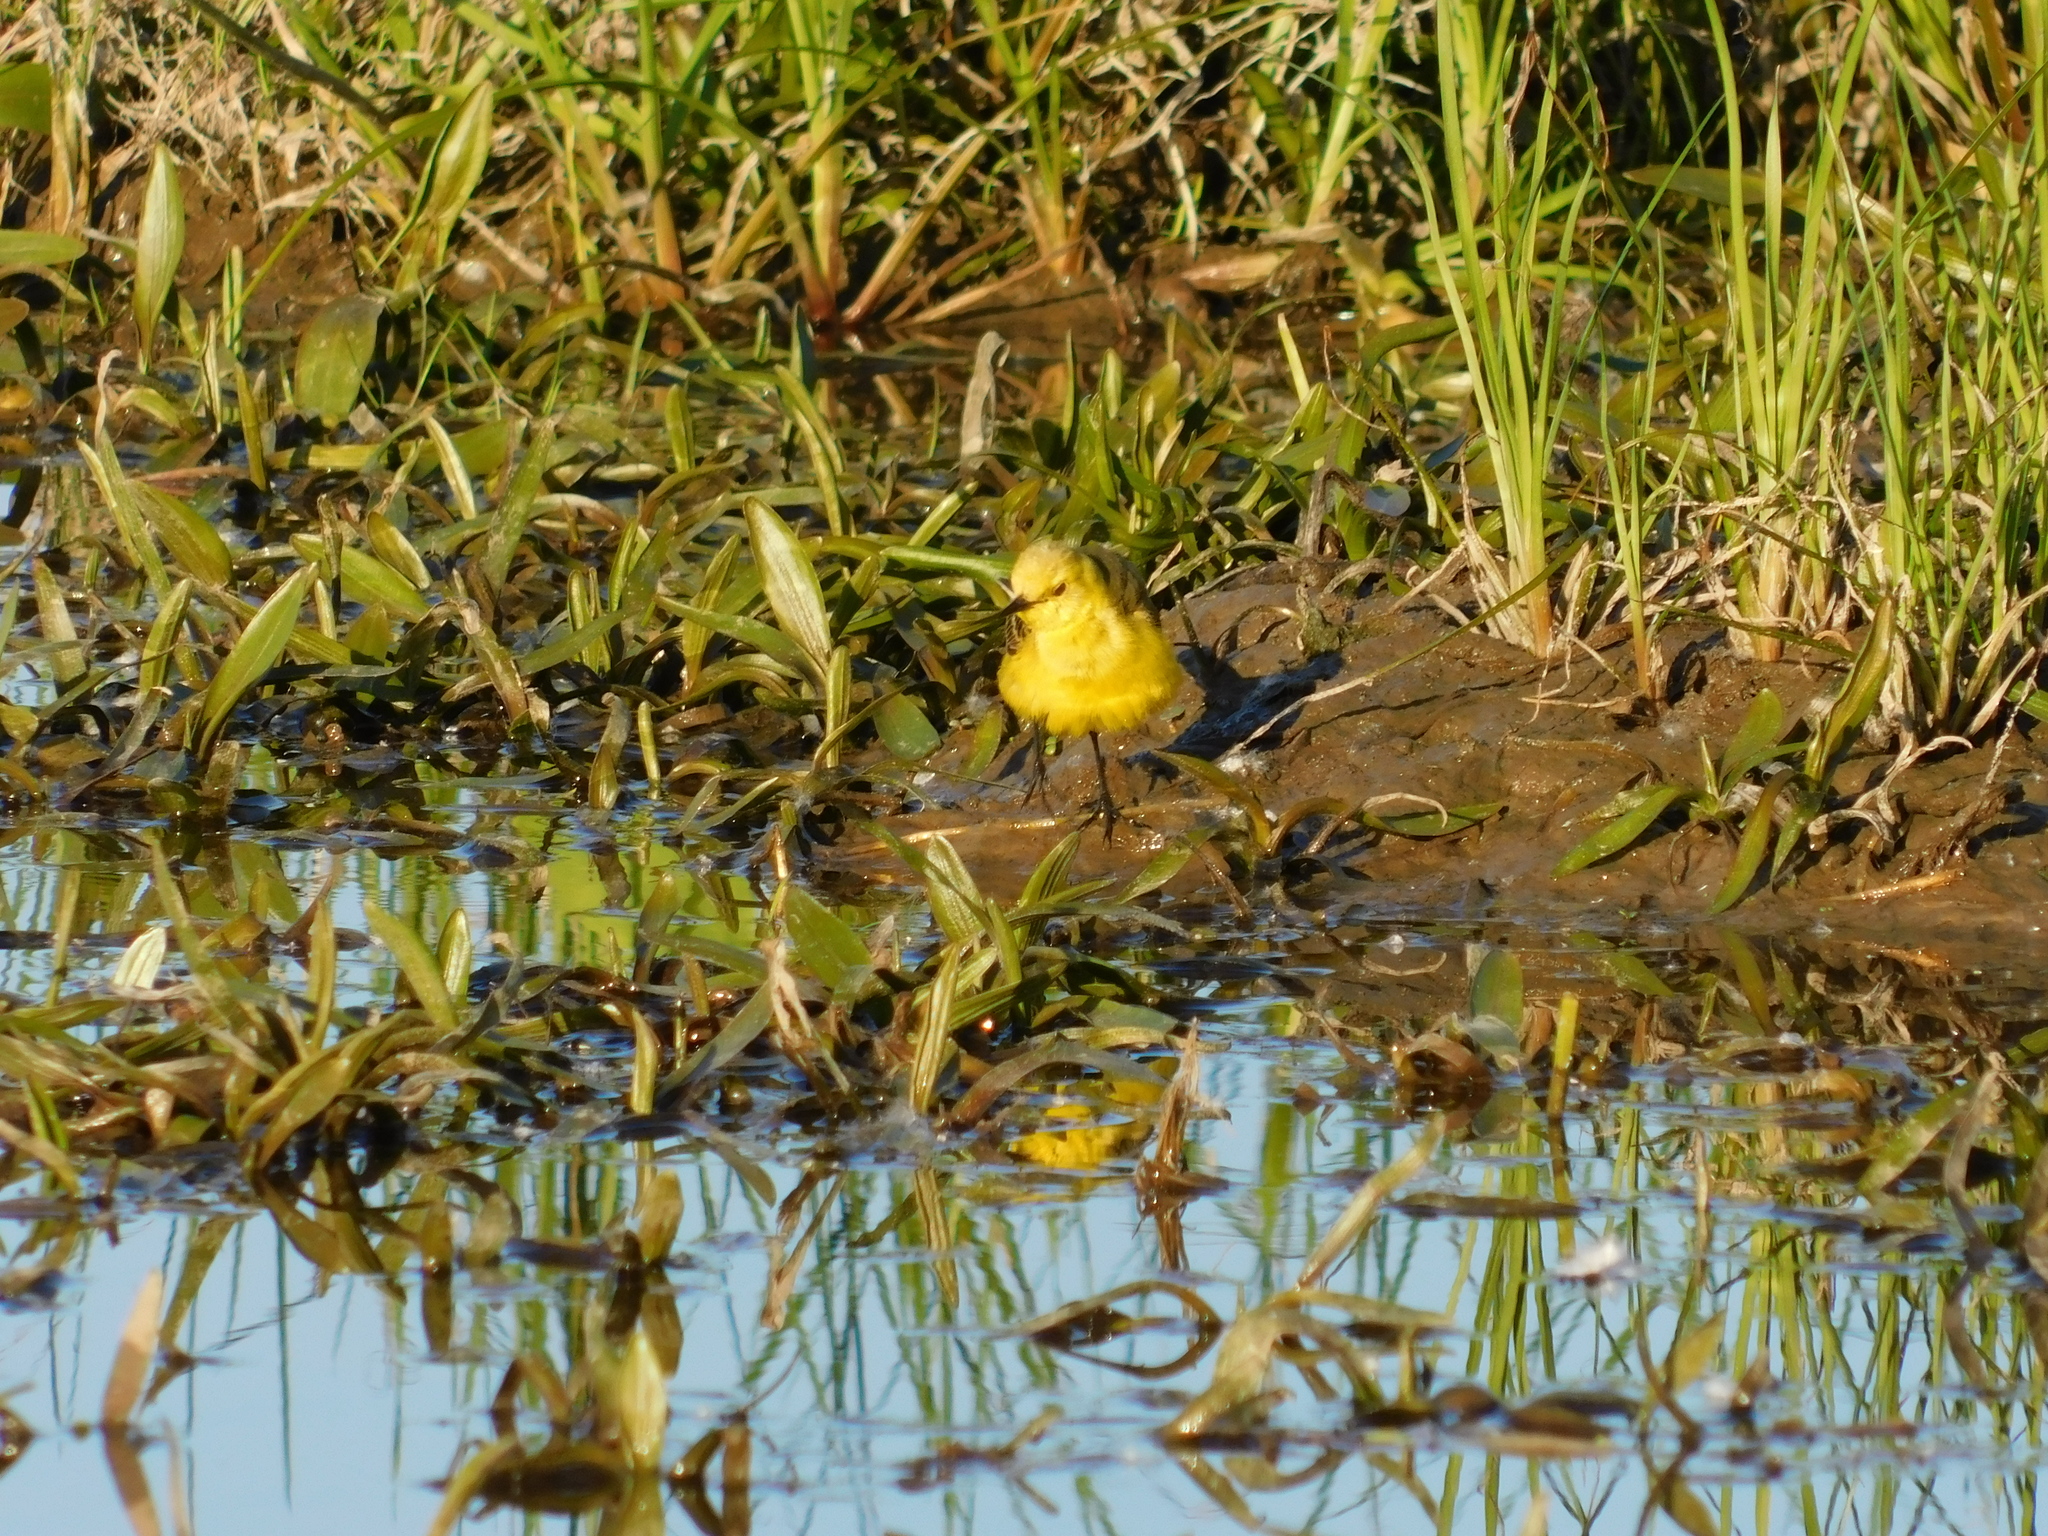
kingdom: Animalia
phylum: Chordata
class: Aves
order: Passeriformes
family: Motacillidae
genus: Motacilla
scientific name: Motacilla flava
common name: Western yellow wagtail
